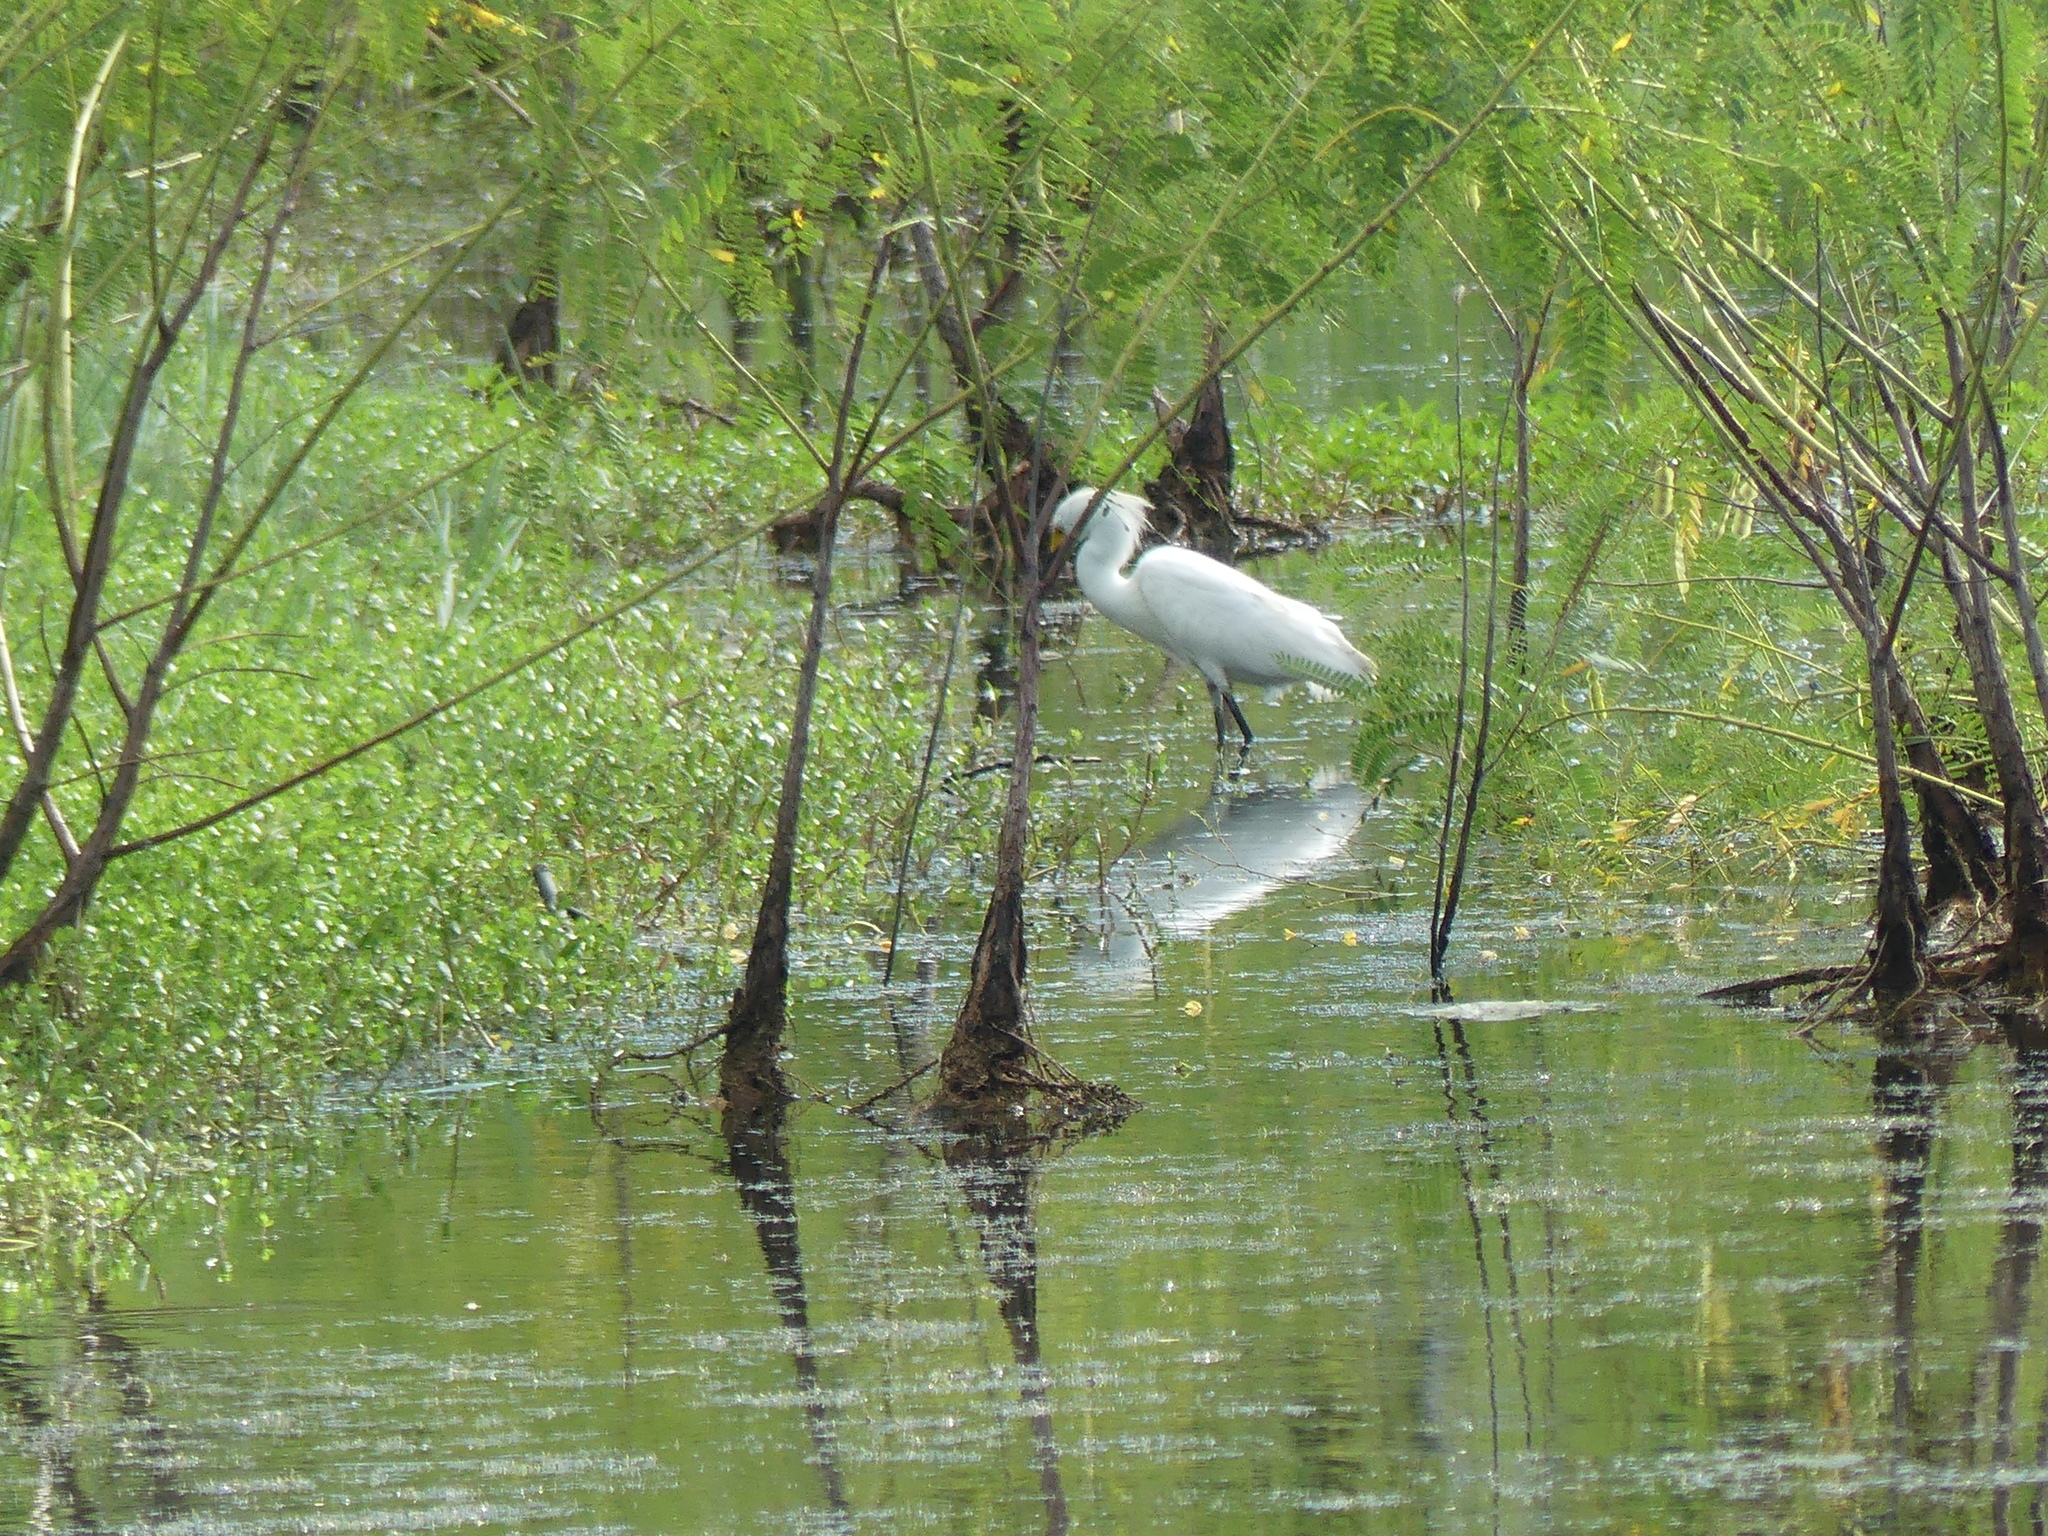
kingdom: Animalia
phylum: Chordata
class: Aves
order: Pelecaniformes
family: Ardeidae
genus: Egretta
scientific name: Egretta thula
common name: Snowy egret
